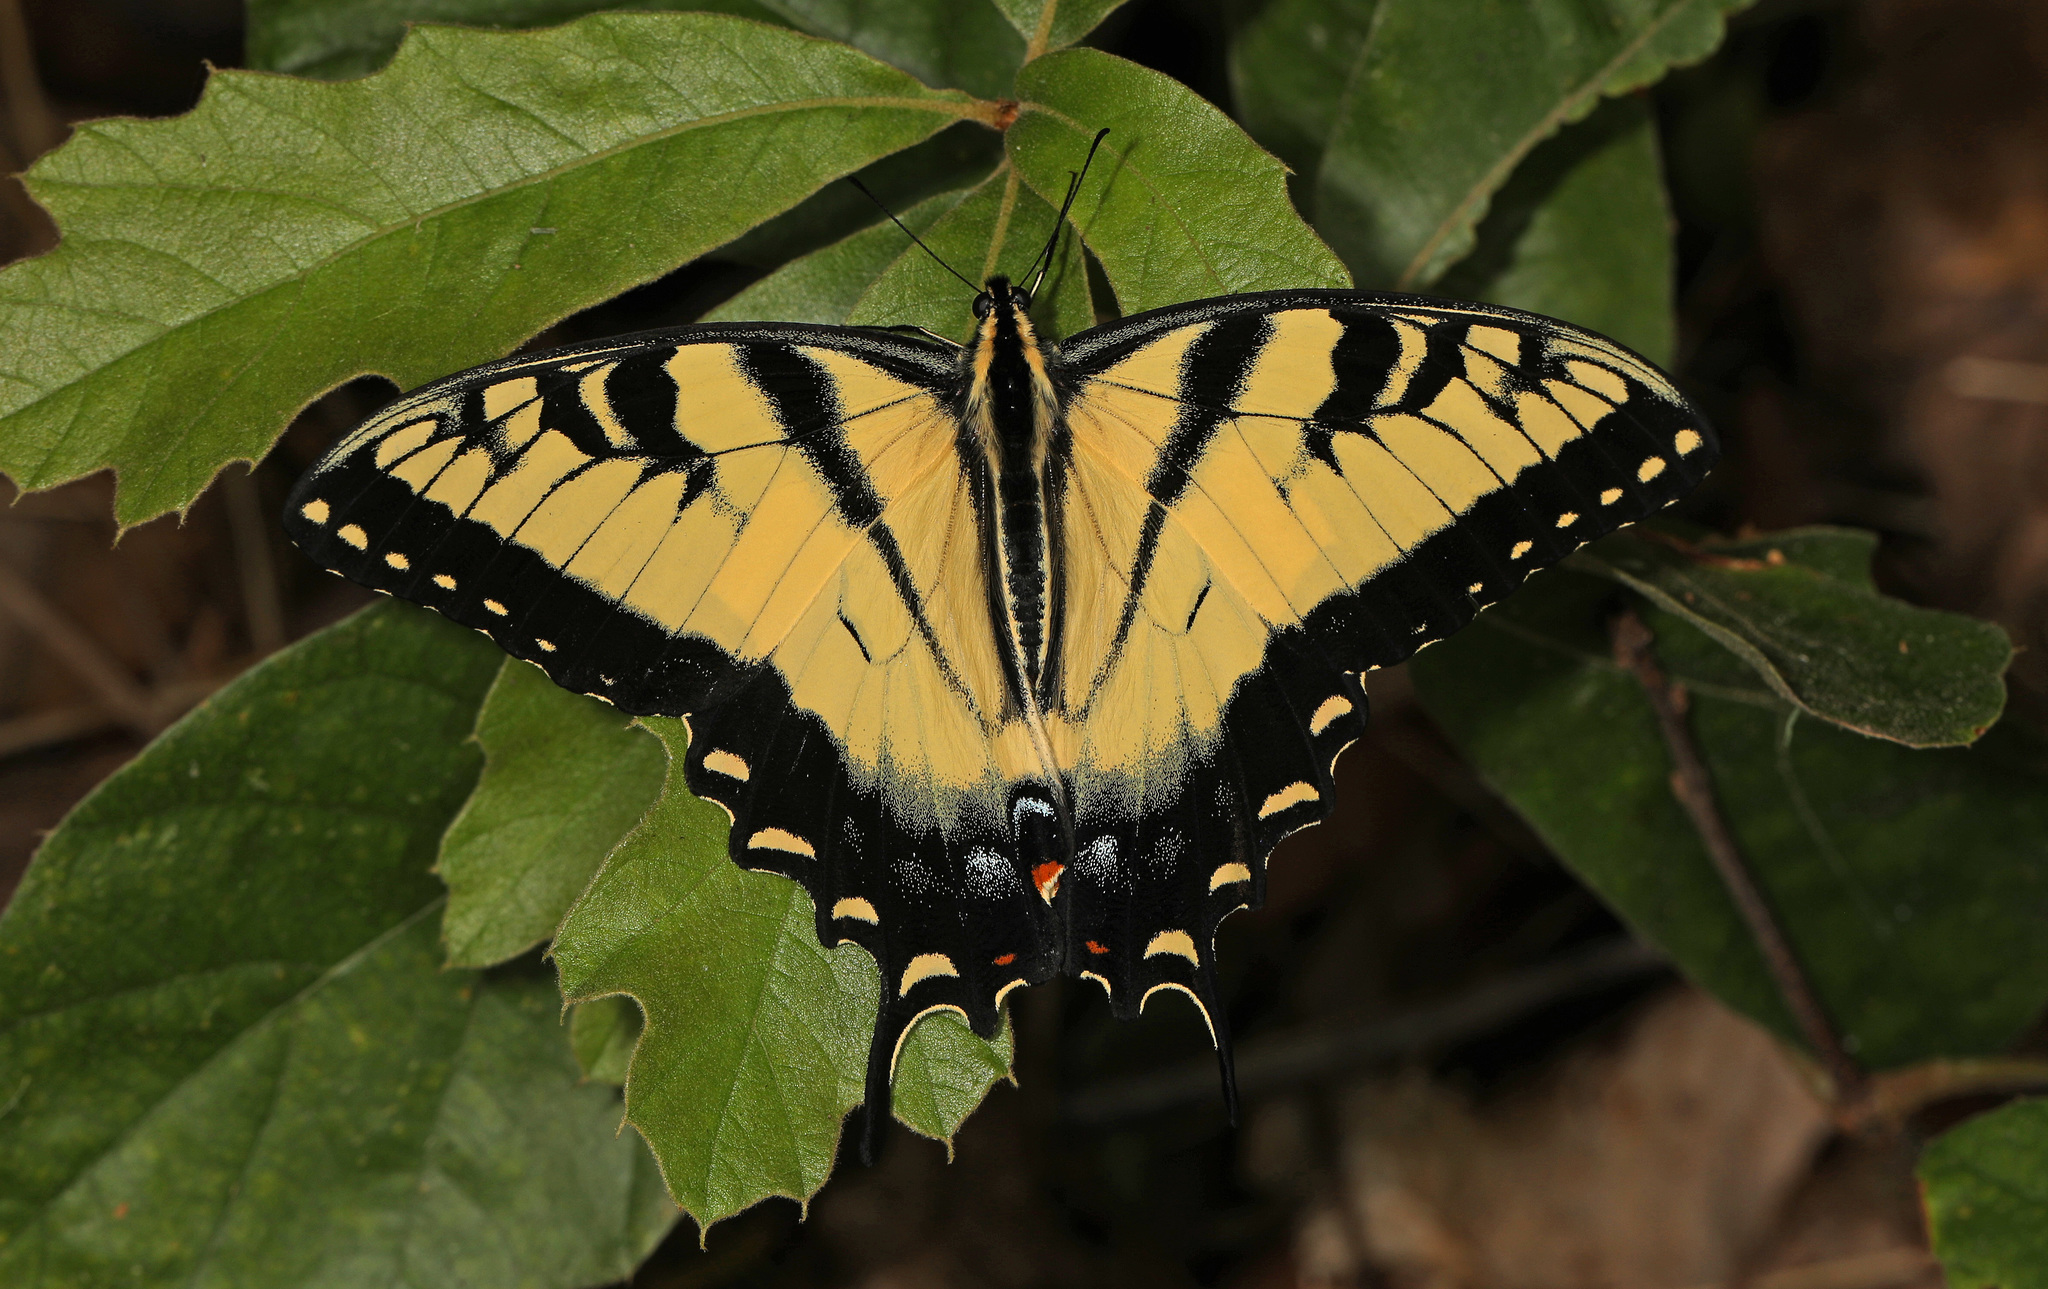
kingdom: Animalia
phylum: Arthropoda
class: Insecta
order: Lepidoptera
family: Papilionidae
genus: Papilio
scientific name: Papilio glaucus
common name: Tiger swallowtail
